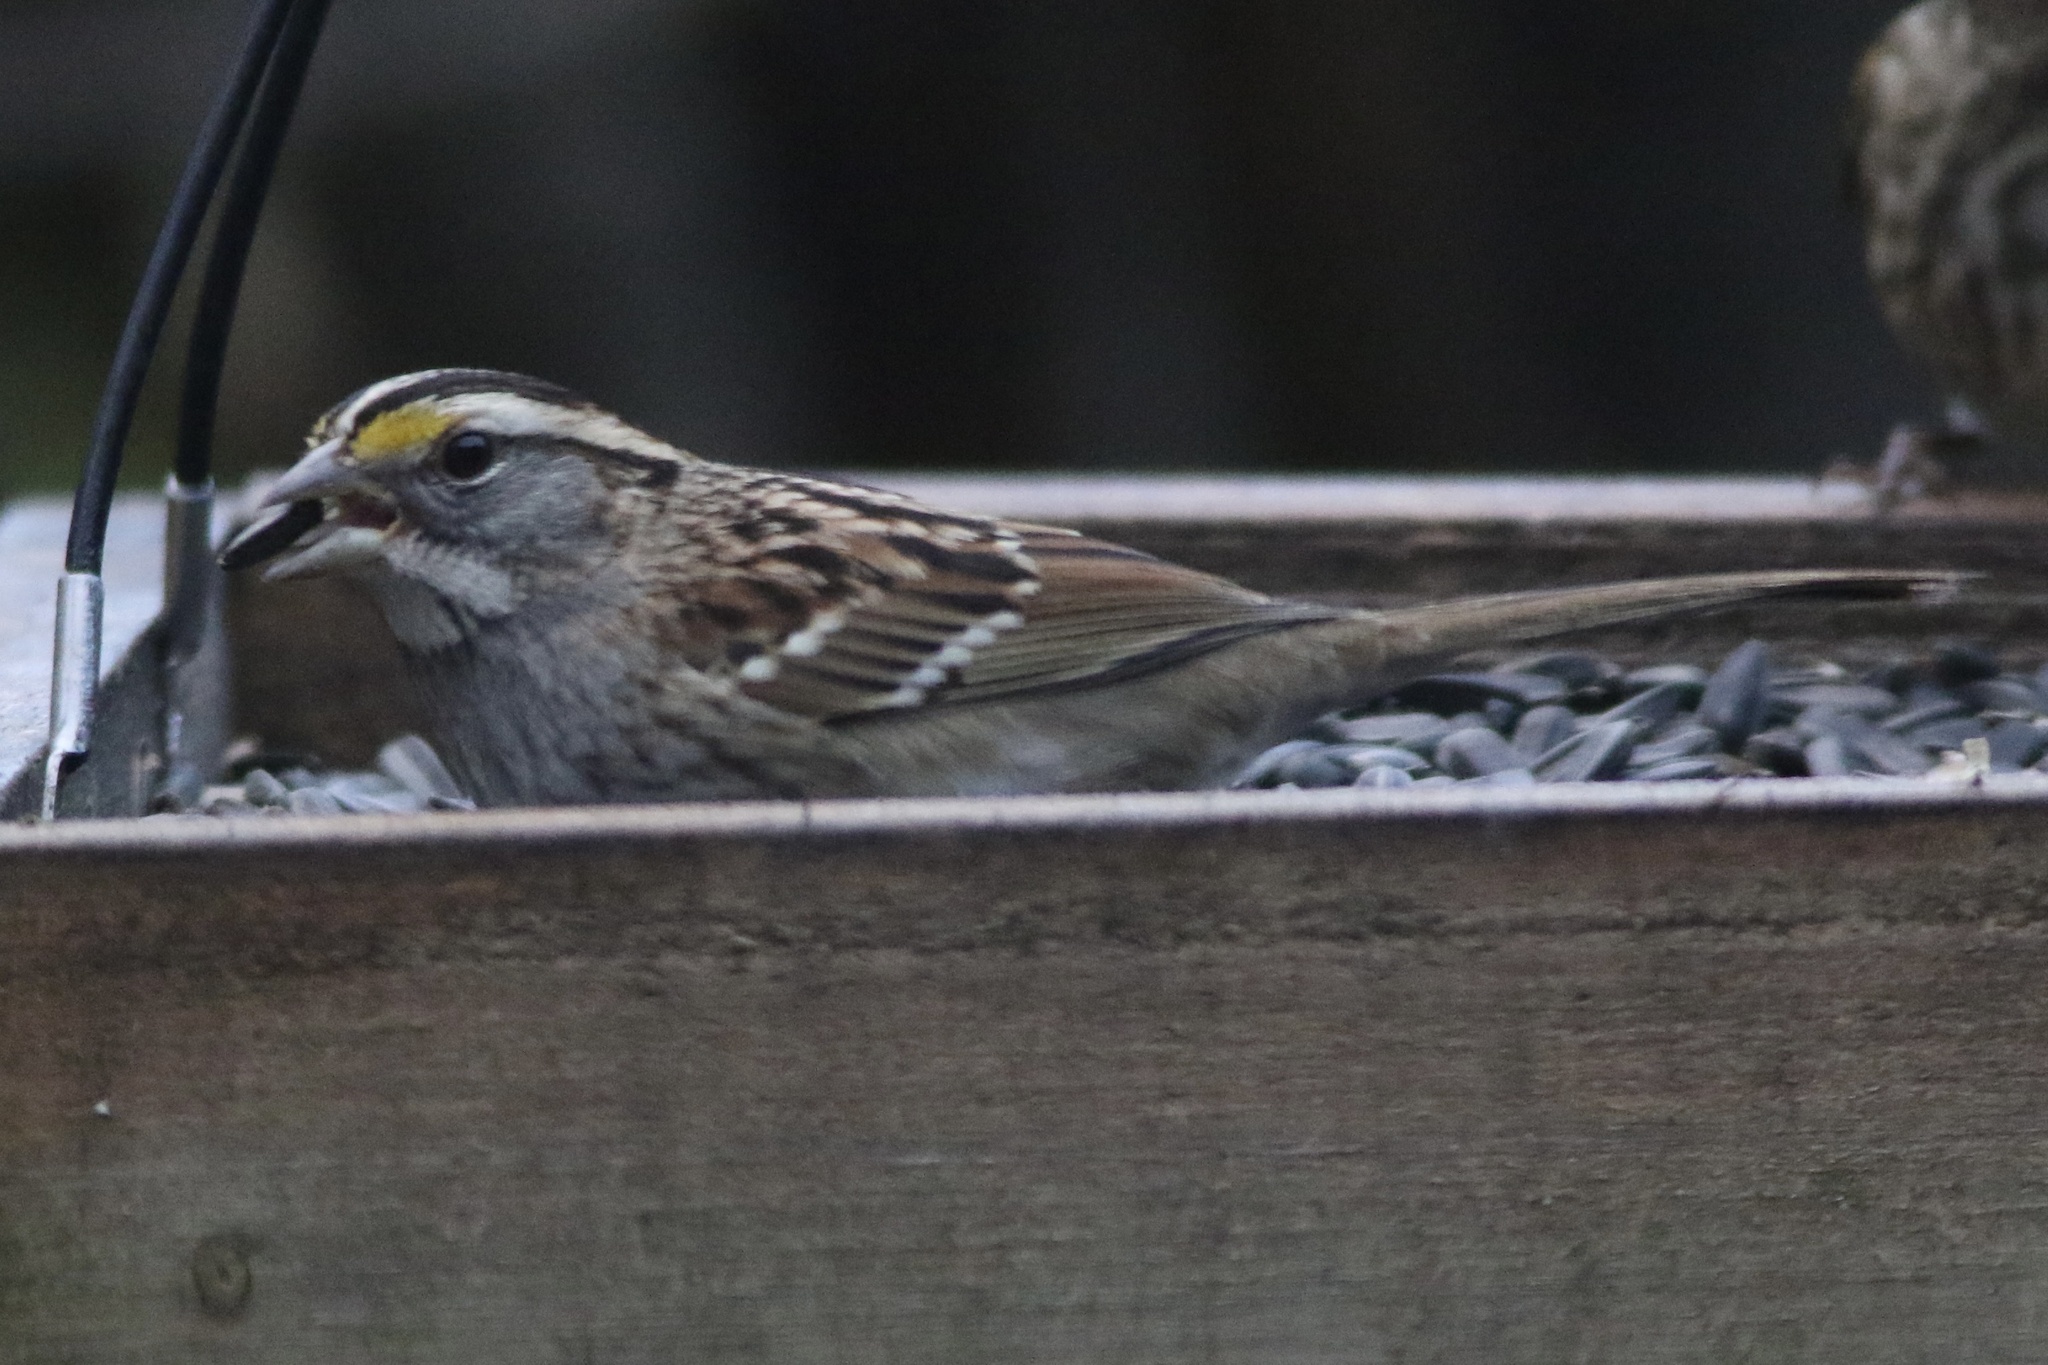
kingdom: Animalia
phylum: Chordata
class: Aves
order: Passeriformes
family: Passerellidae
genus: Zonotrichia
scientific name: Zonotrichia albicollis
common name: White-throated sparrow
